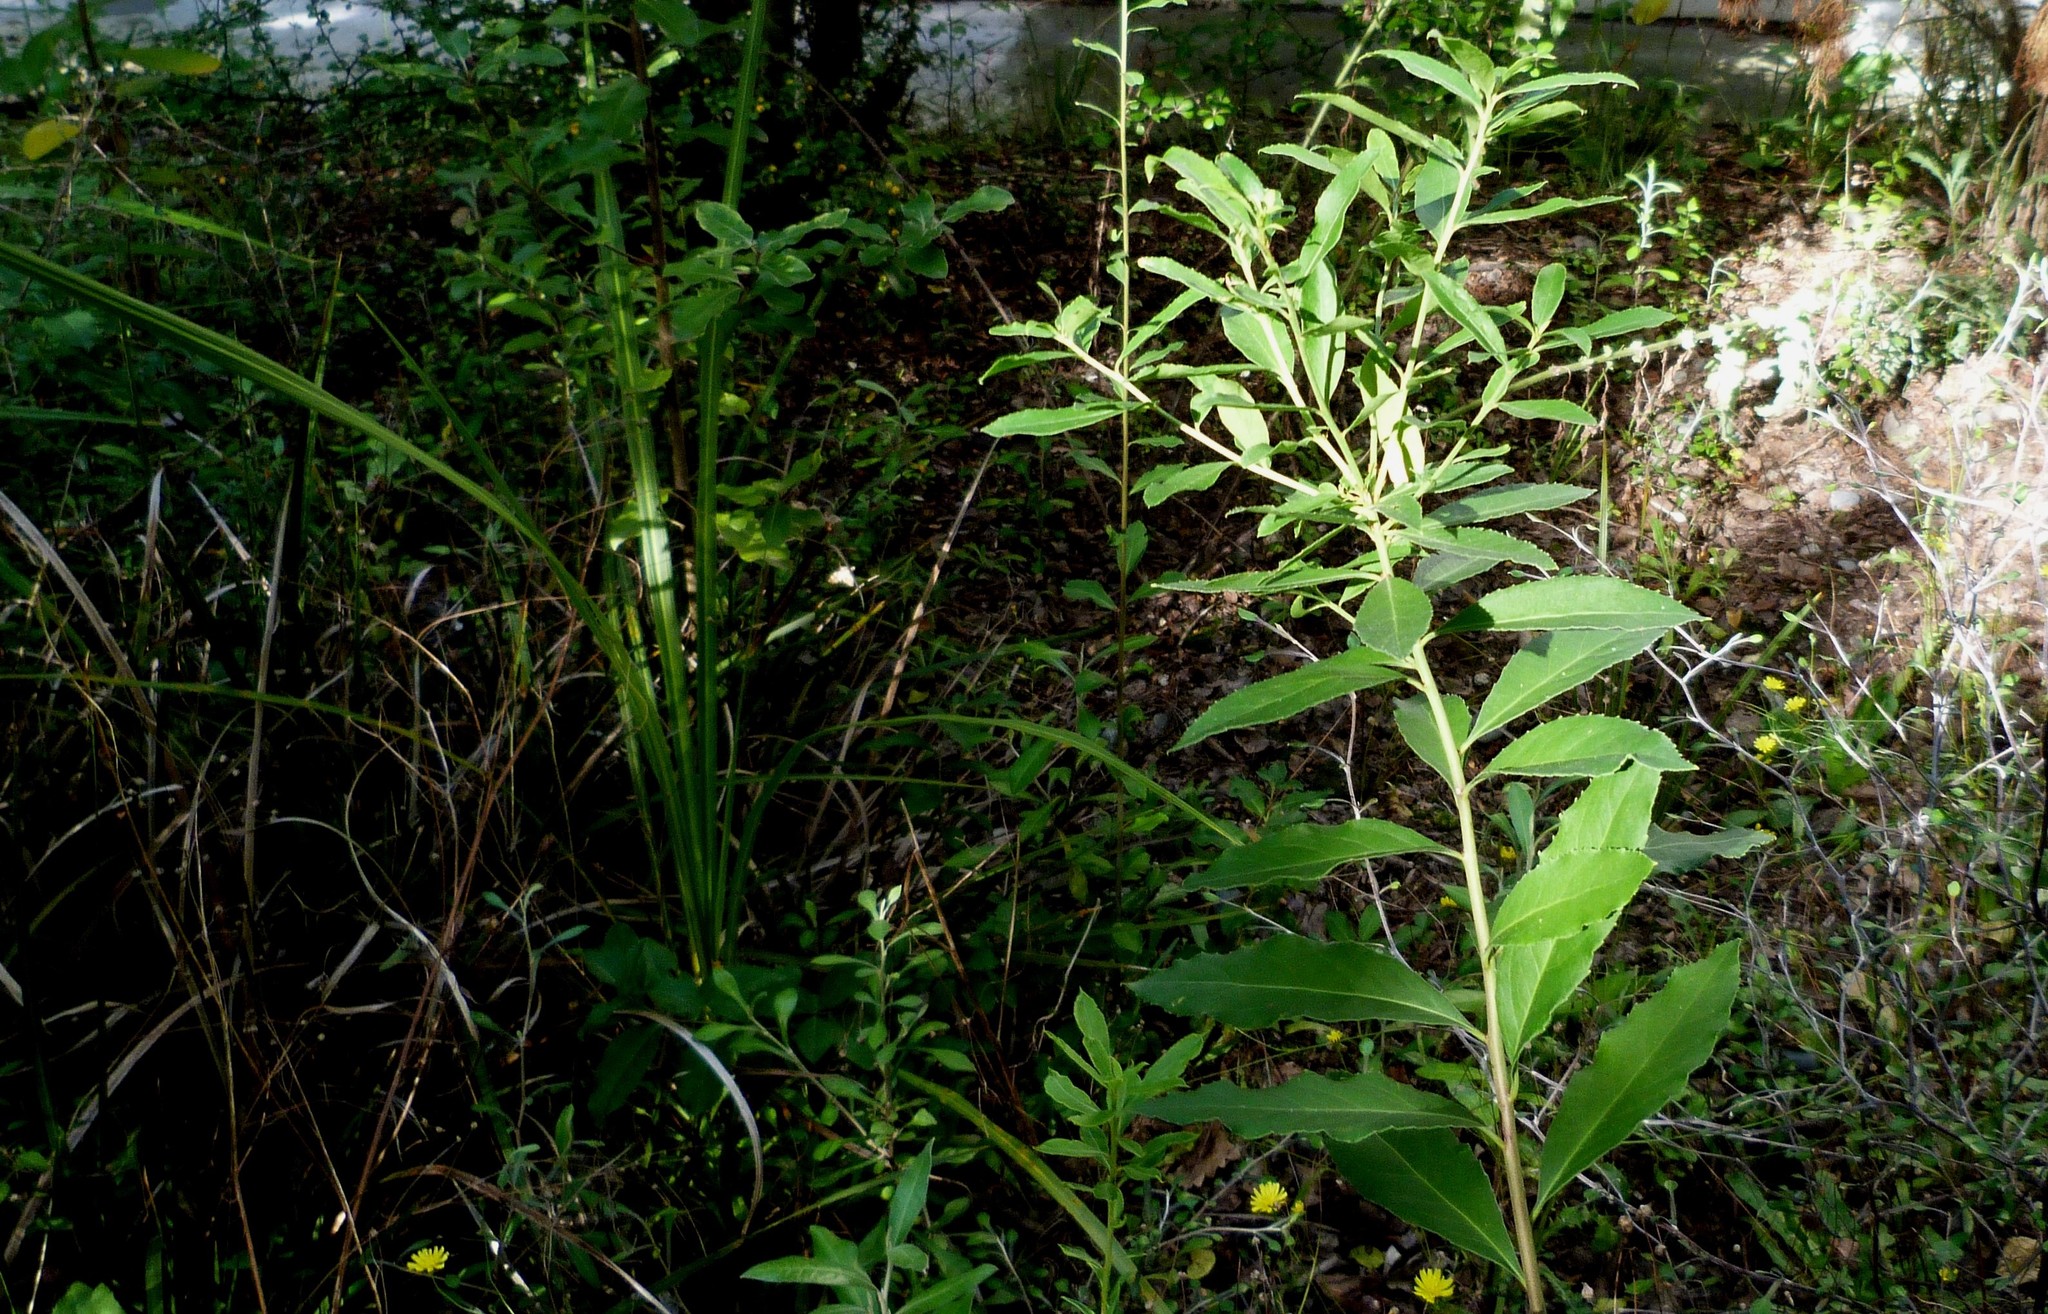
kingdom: Plantae
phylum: Tracheophyta
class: Magnoliopsida
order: Celastrales
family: Celastraceae
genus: Maytenus
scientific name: Maytenus boaria
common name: Mayten
